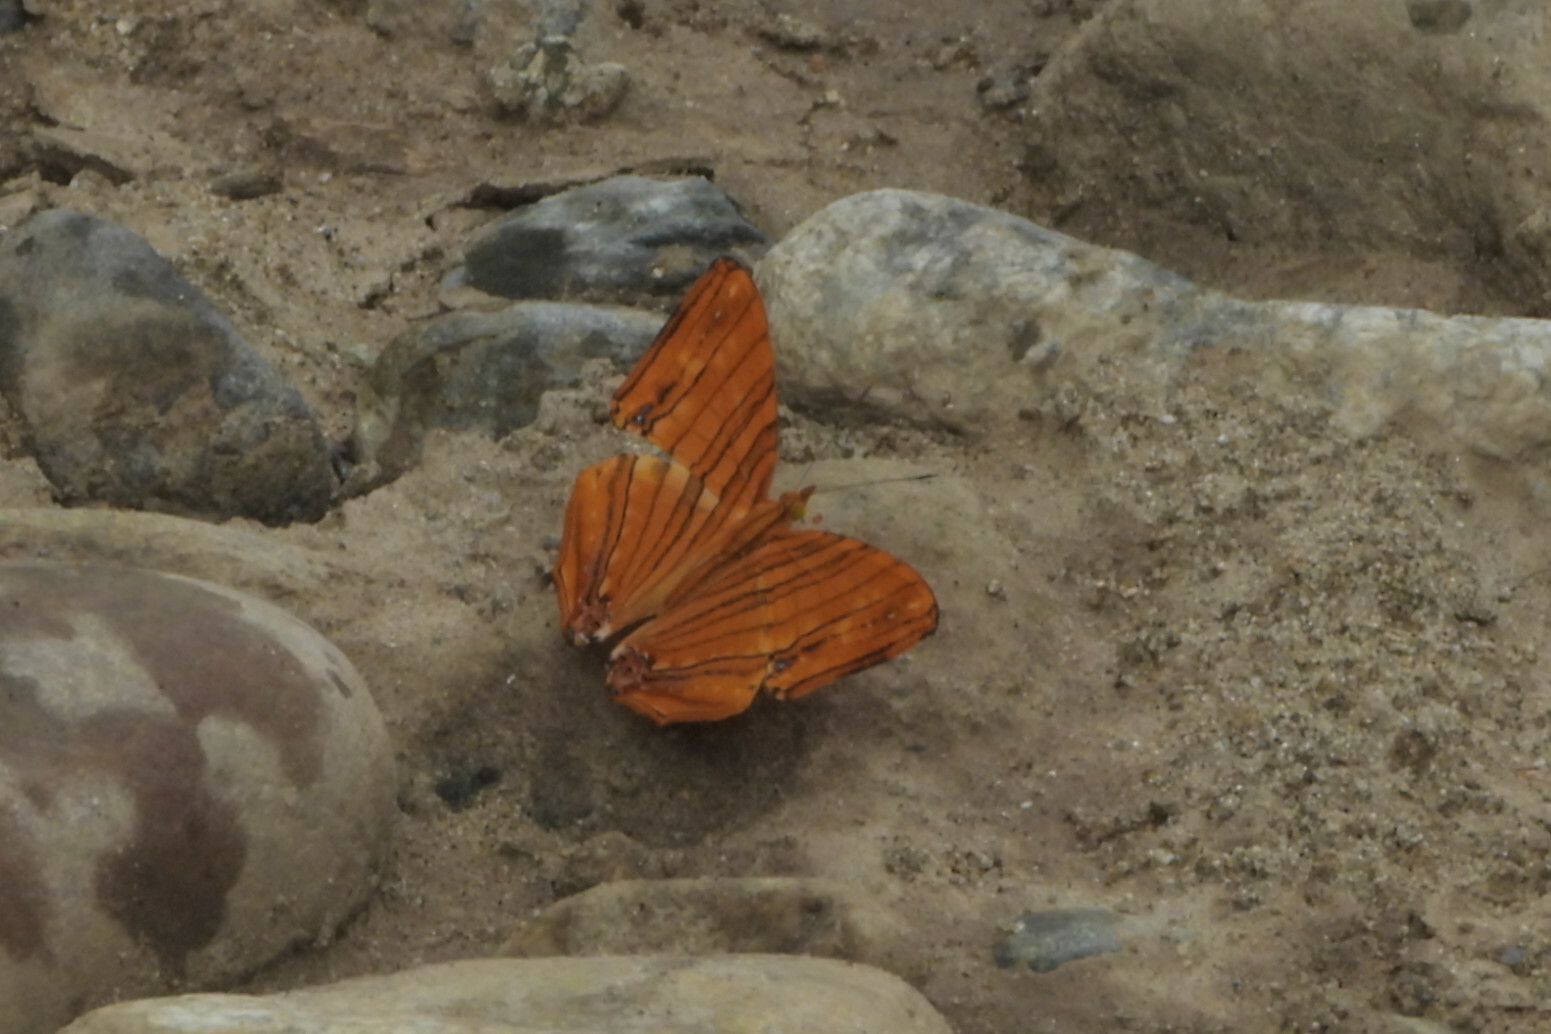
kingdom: Animalia
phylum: Arthropoda
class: Insecta
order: Lepidoptera
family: Nymphalidae
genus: Chersonesia
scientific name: Chersonesia risa
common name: Common maplet
